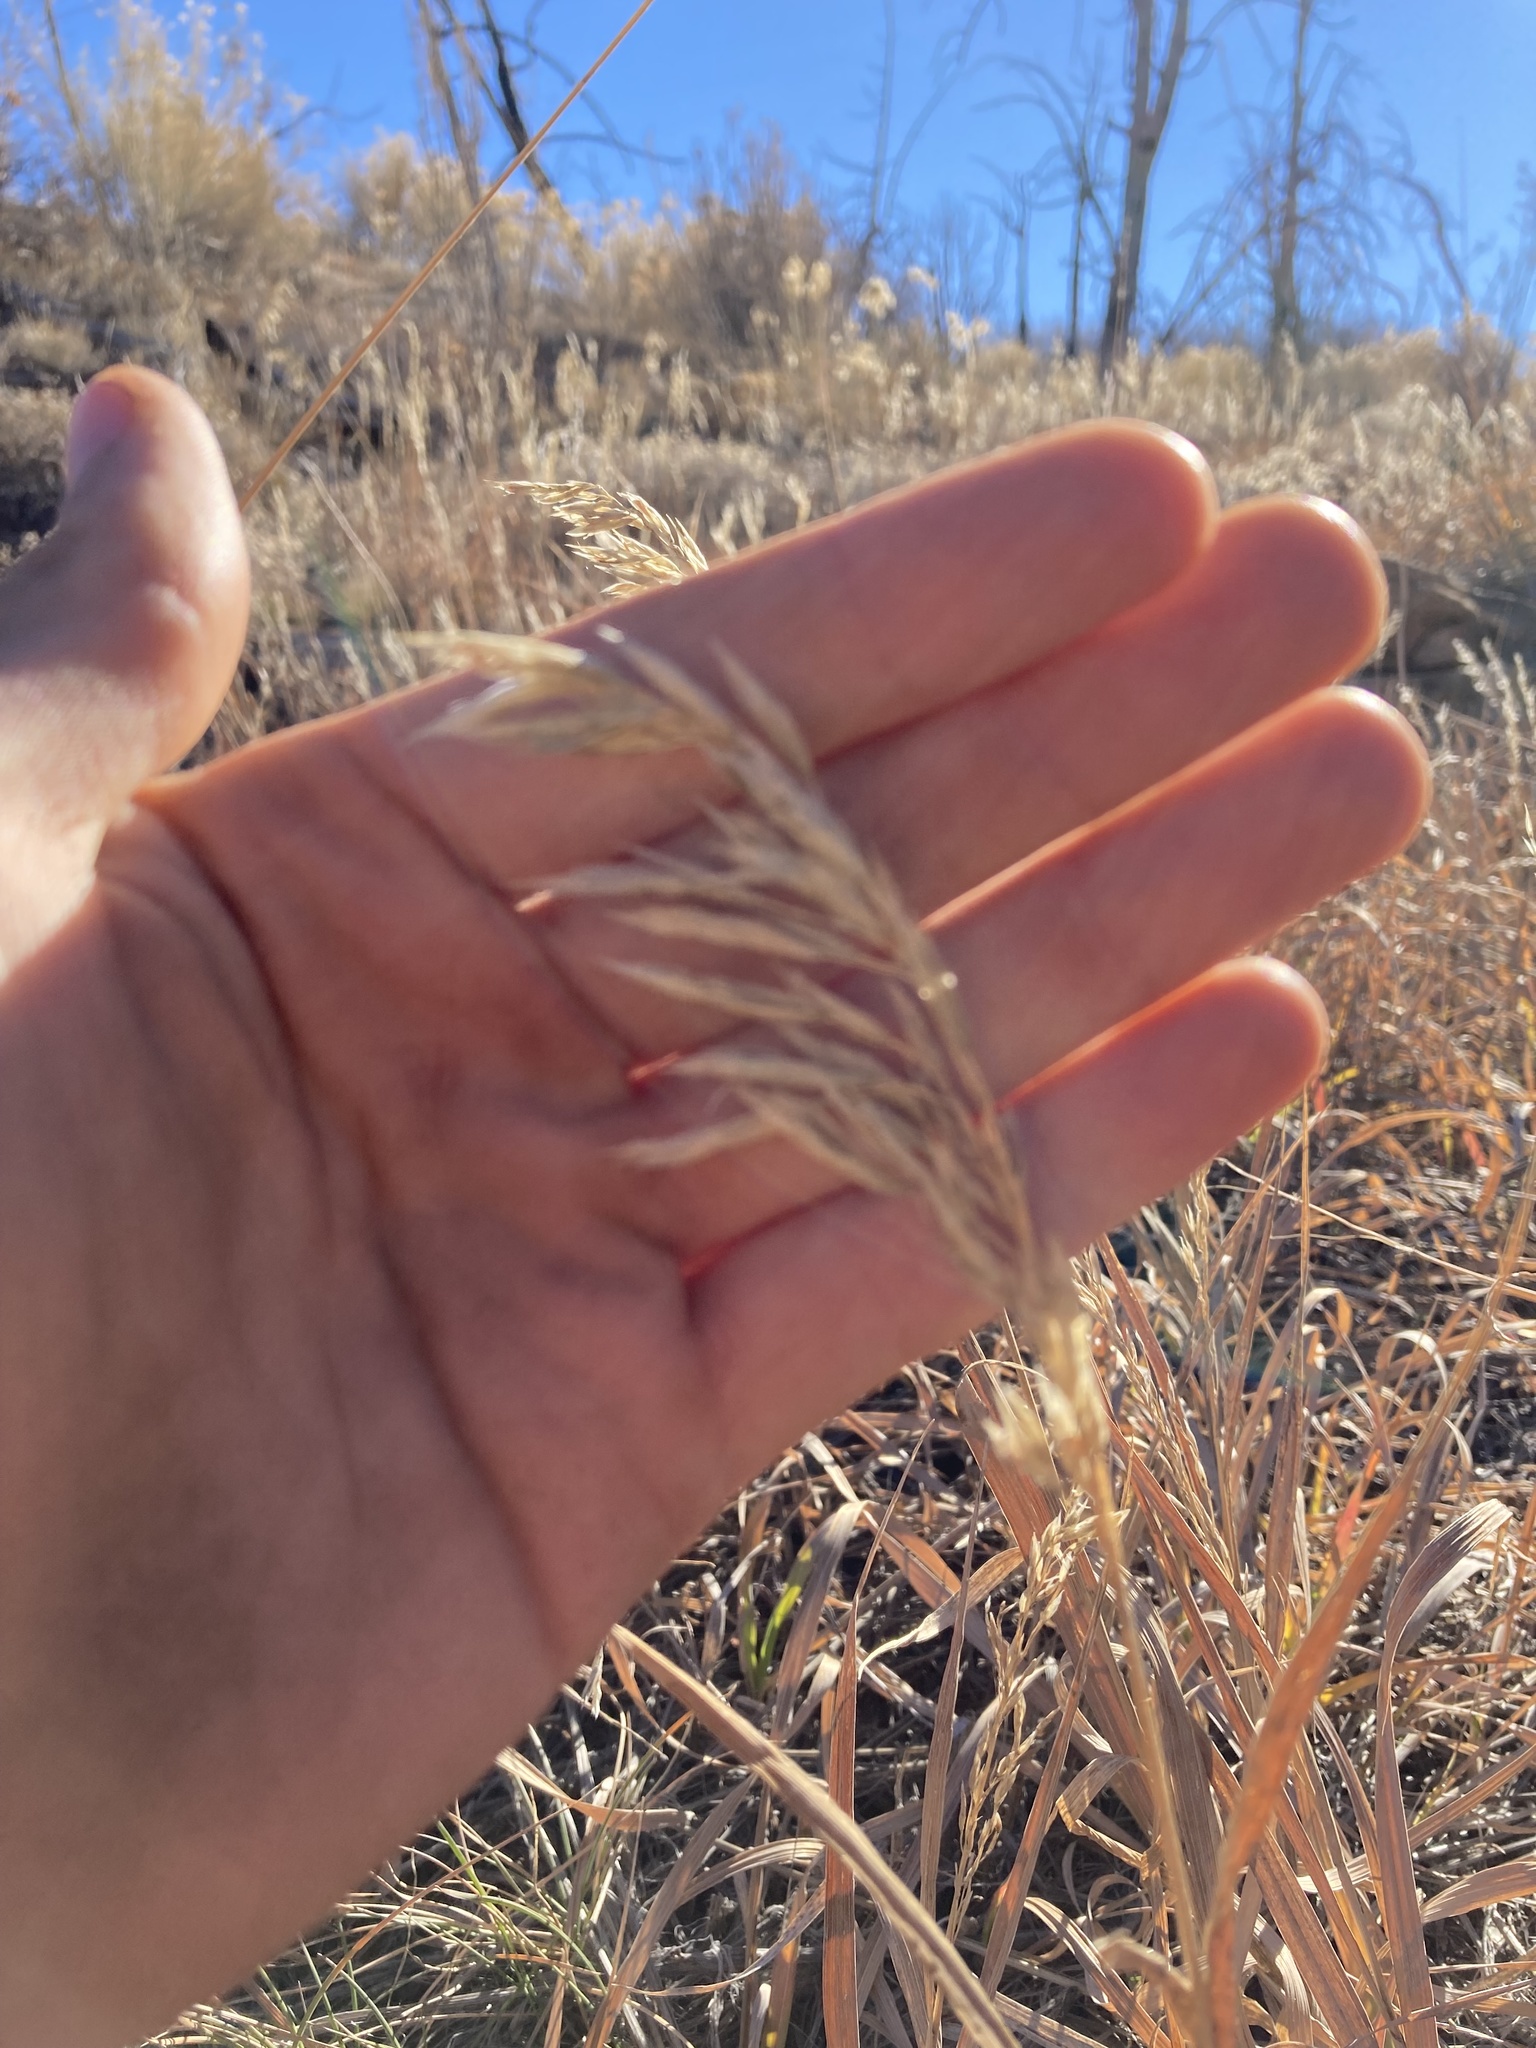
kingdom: Plantae
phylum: Tracheophyta
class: Liliopsida
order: Poales
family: Poaceae
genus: Bromus
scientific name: Bromus inermis
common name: Smooth brome
